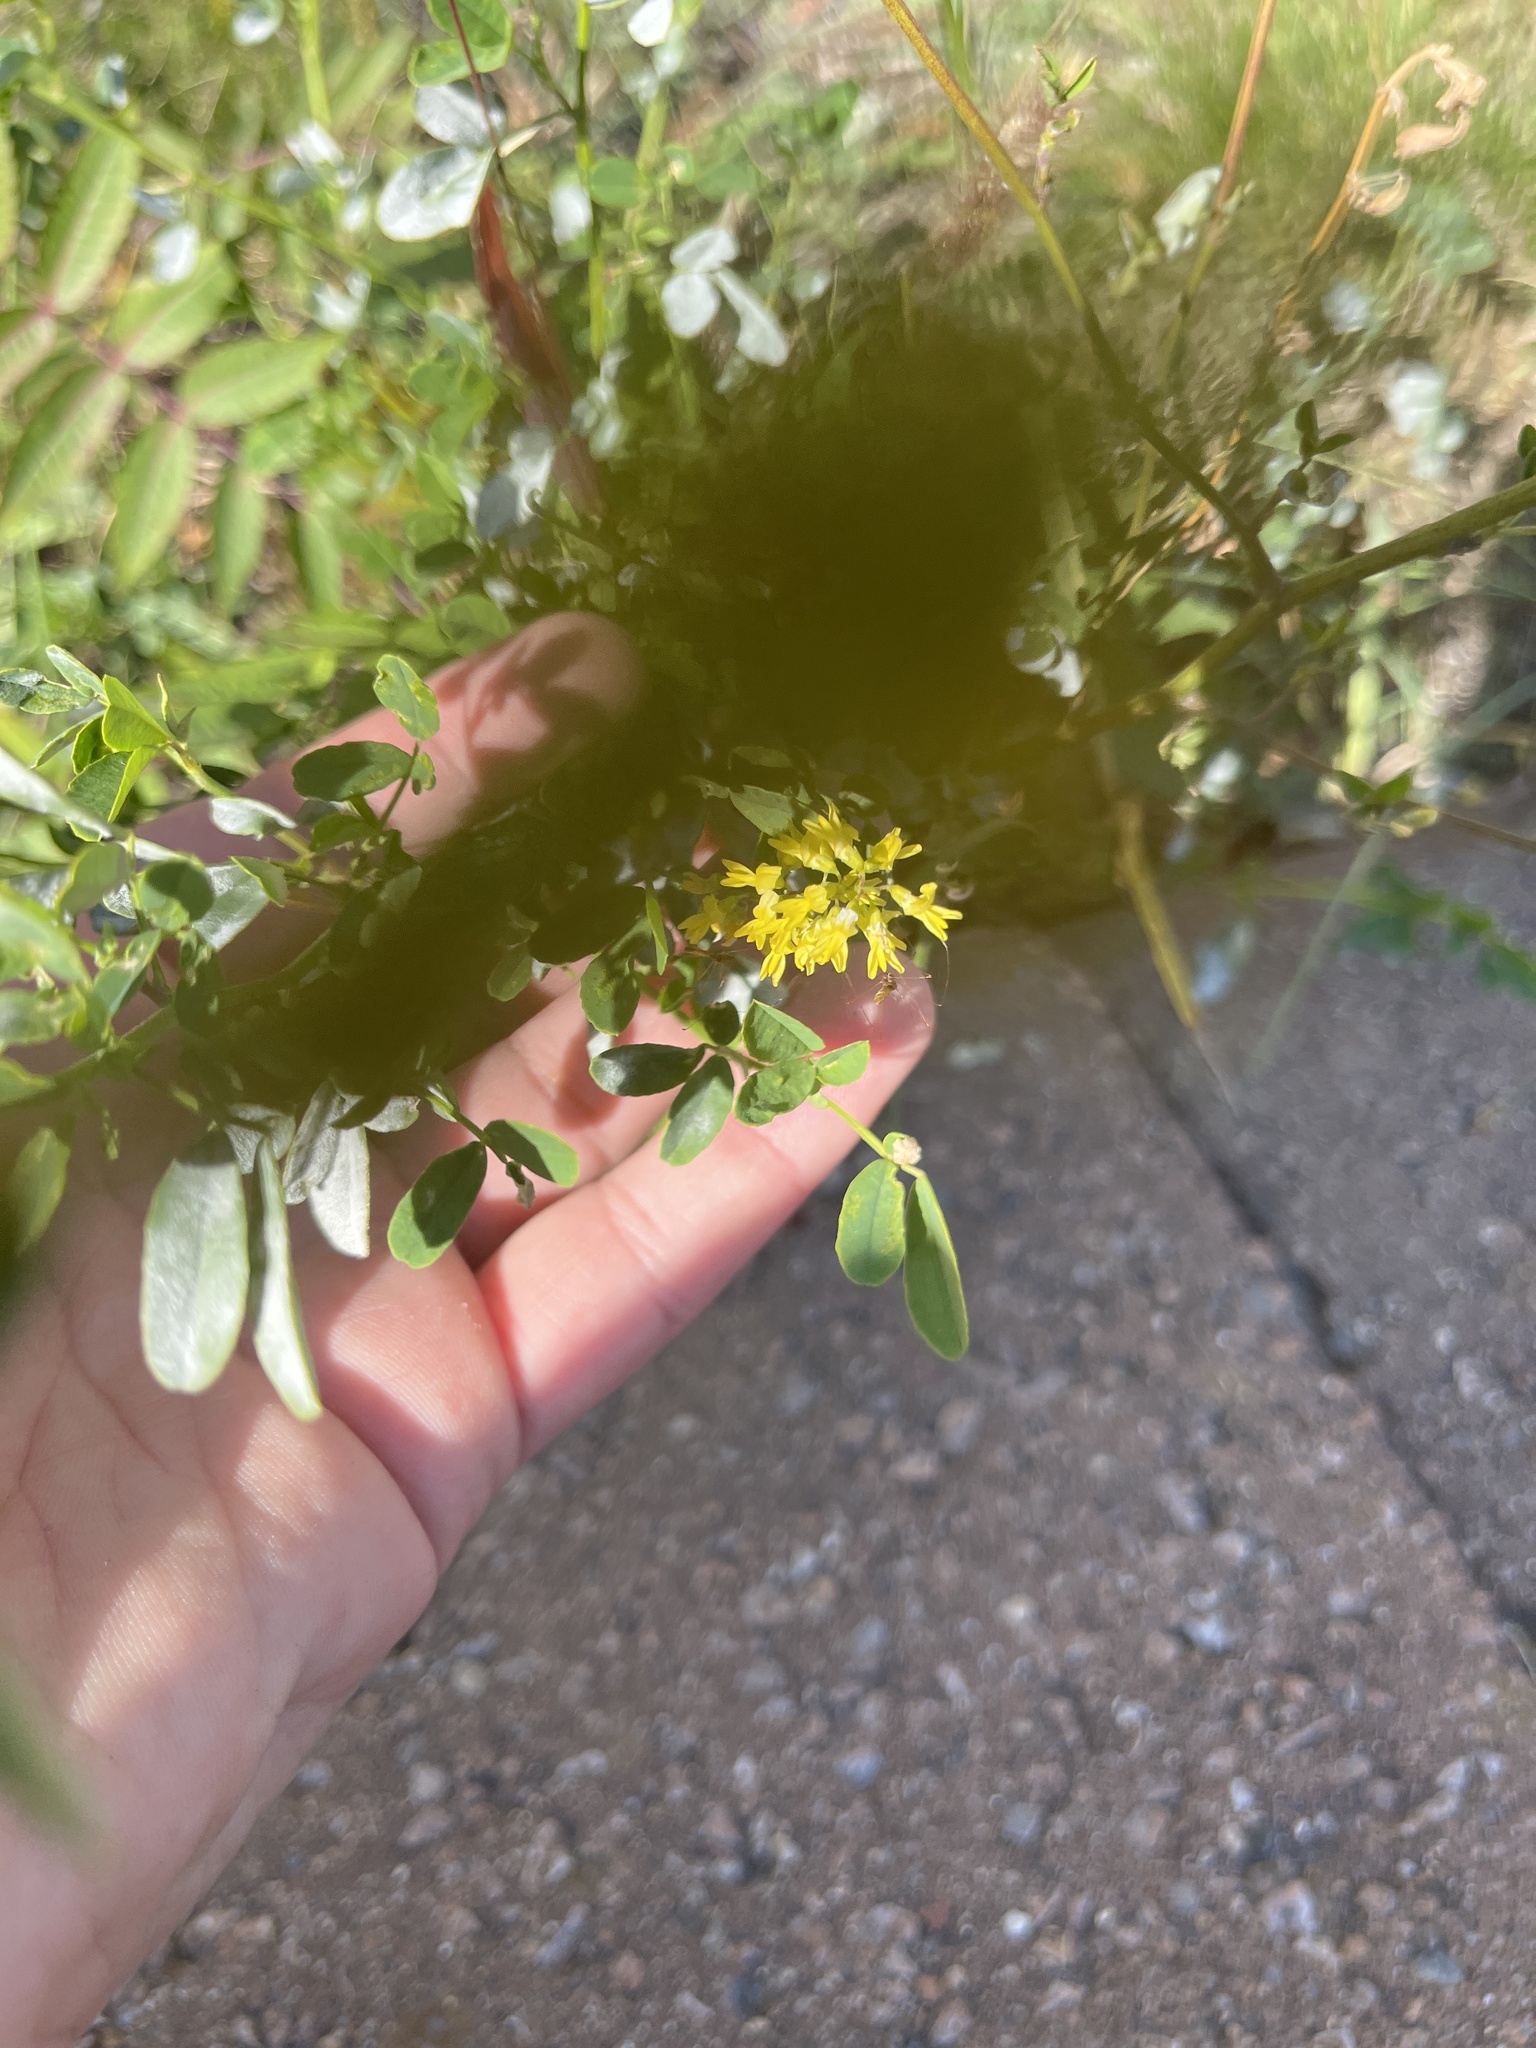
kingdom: Plantae
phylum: Tracheophyta
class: Magnoliopsida
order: Fabales
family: Fabaceae
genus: Melilotus
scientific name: Melilotus officinalis
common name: Sweetclover
